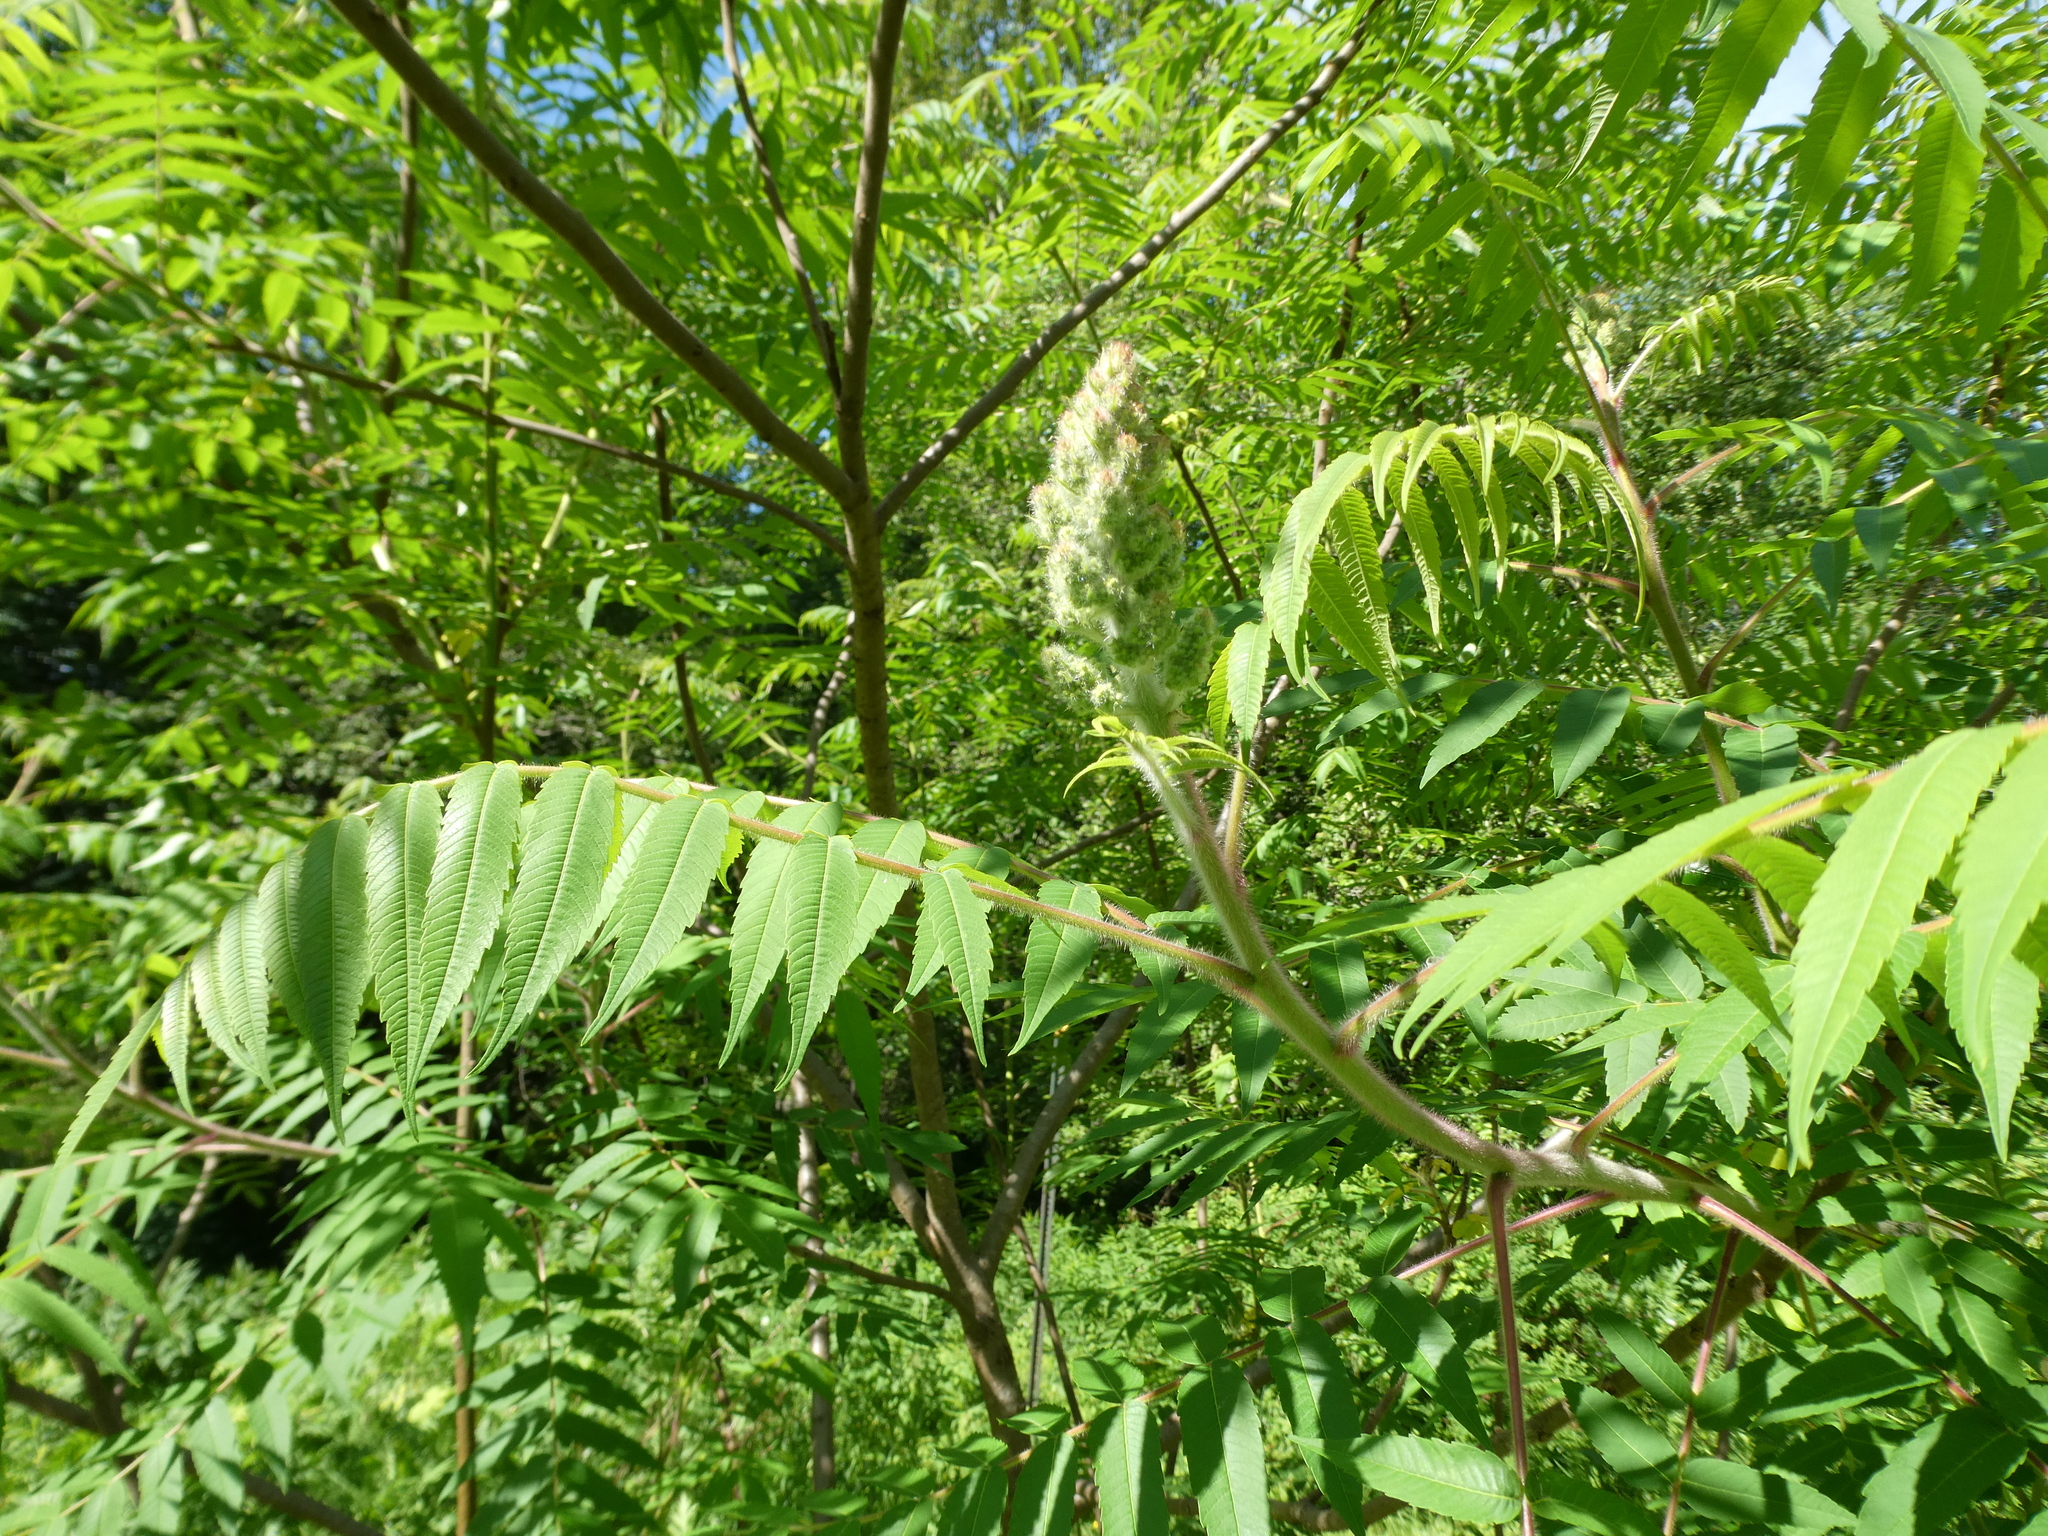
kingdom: Plantae
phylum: Tracheophyta
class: Magnoliopsida
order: Sapindales
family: Anacardiaceae
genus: Rhus
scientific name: Rhus typhina
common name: Staghorn sumac
